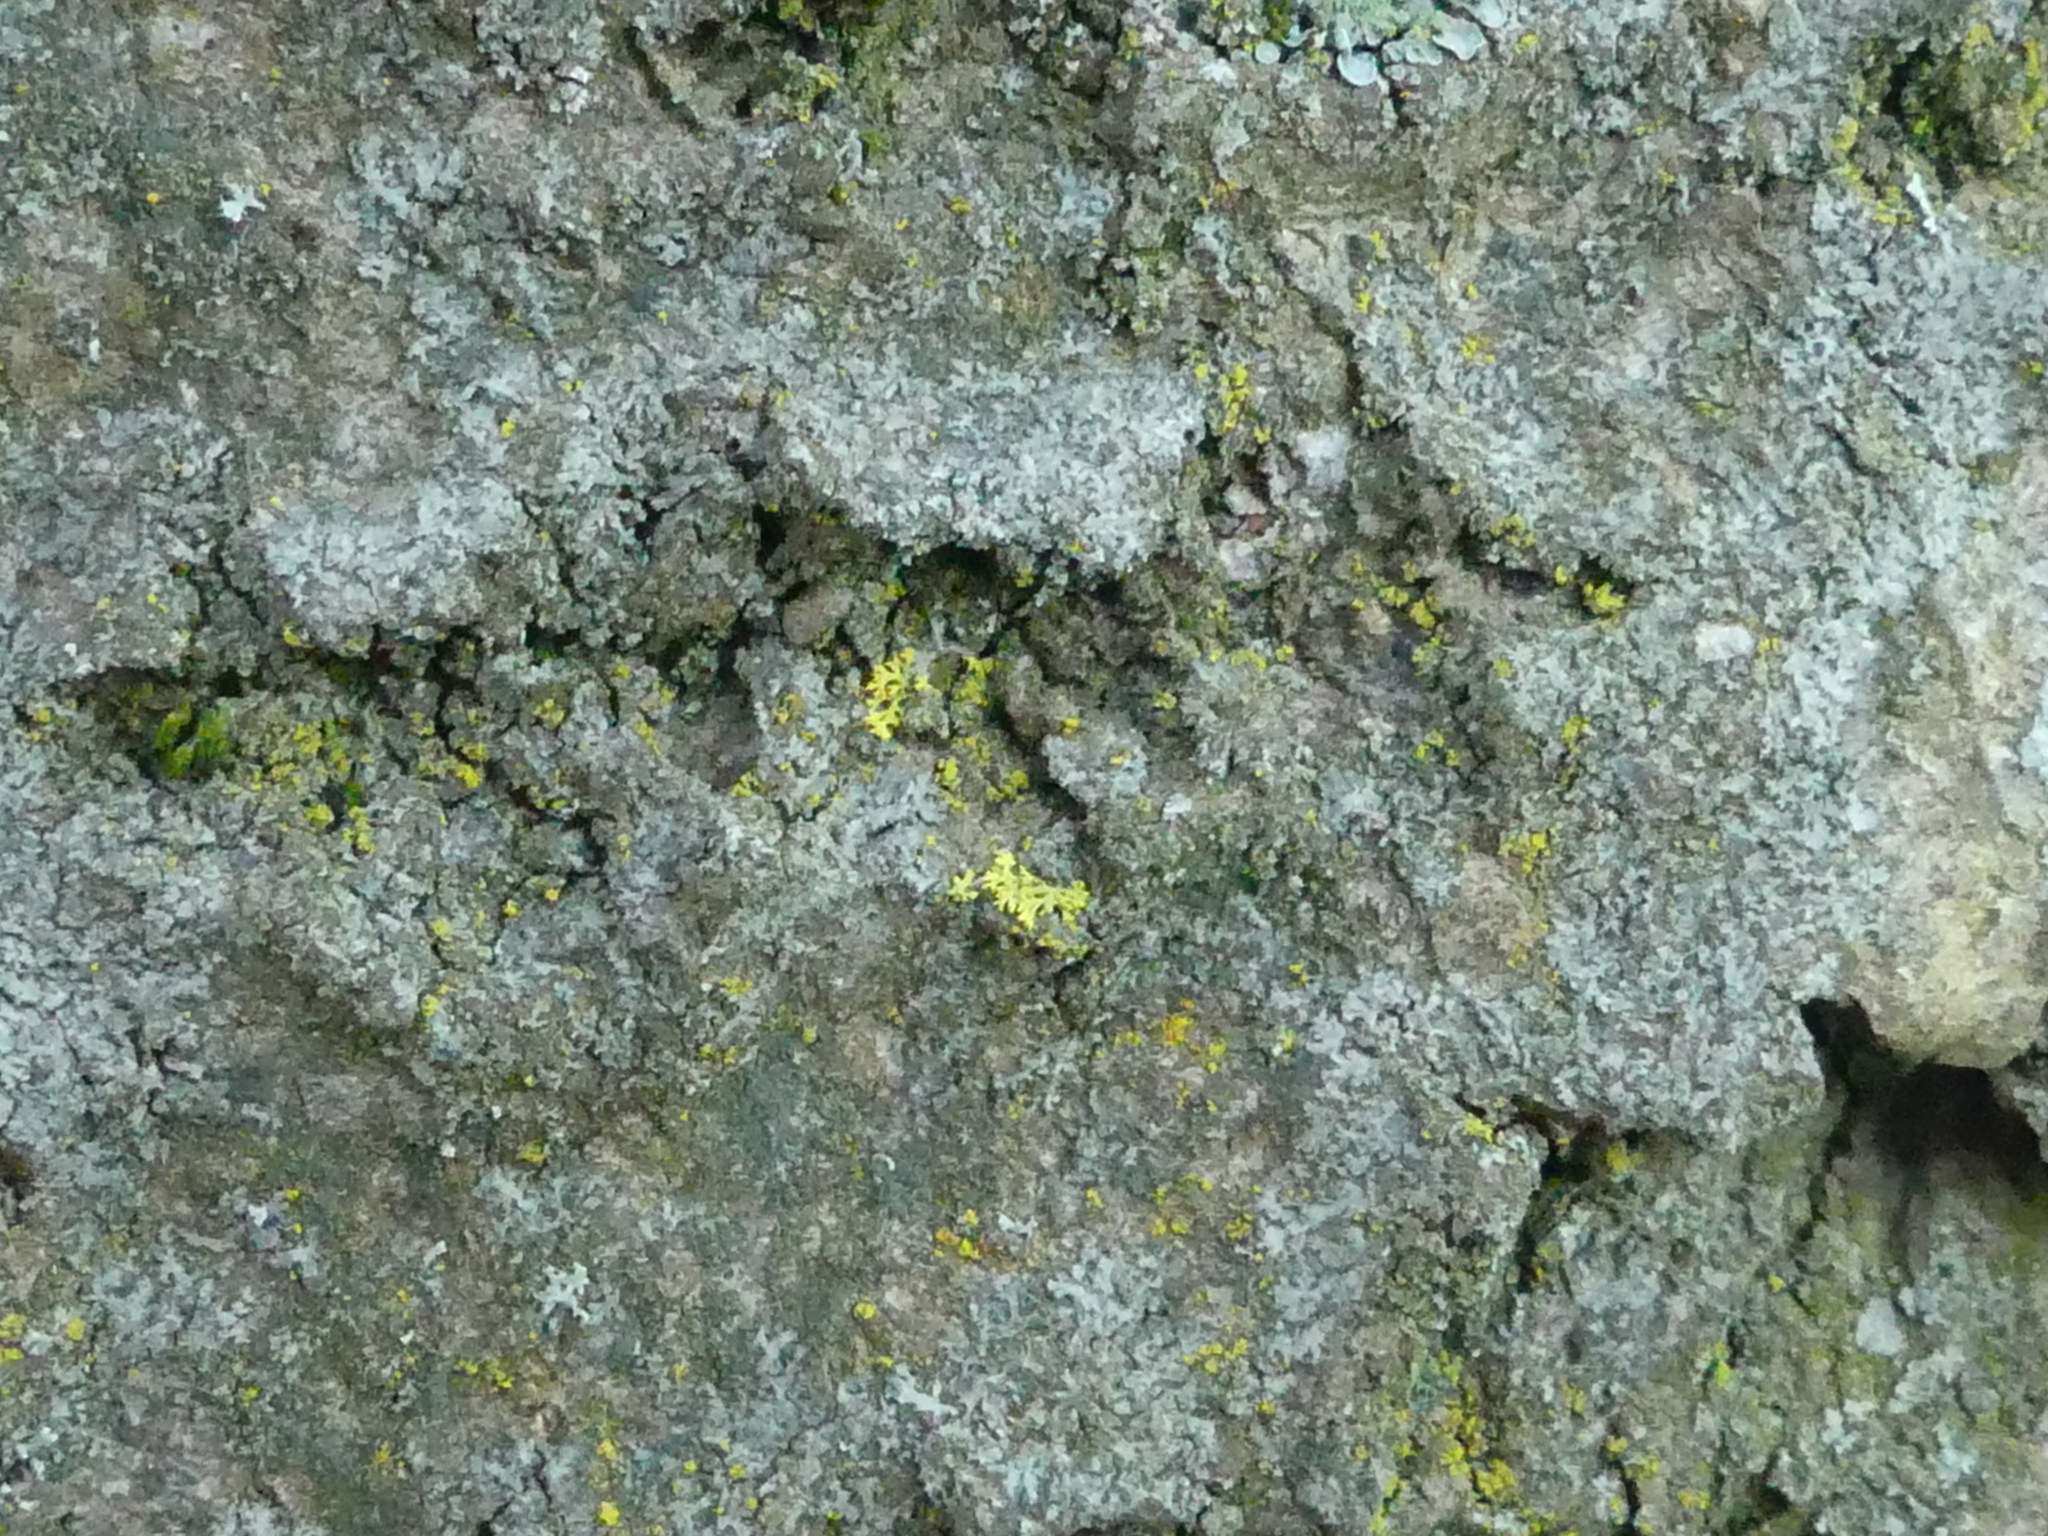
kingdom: Fungi
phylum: Ascomycota
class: Candelariomycetes
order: Candelariales
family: Candelariaceae
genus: Candelaria
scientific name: Candelaria concolor
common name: Candleflame lichen
